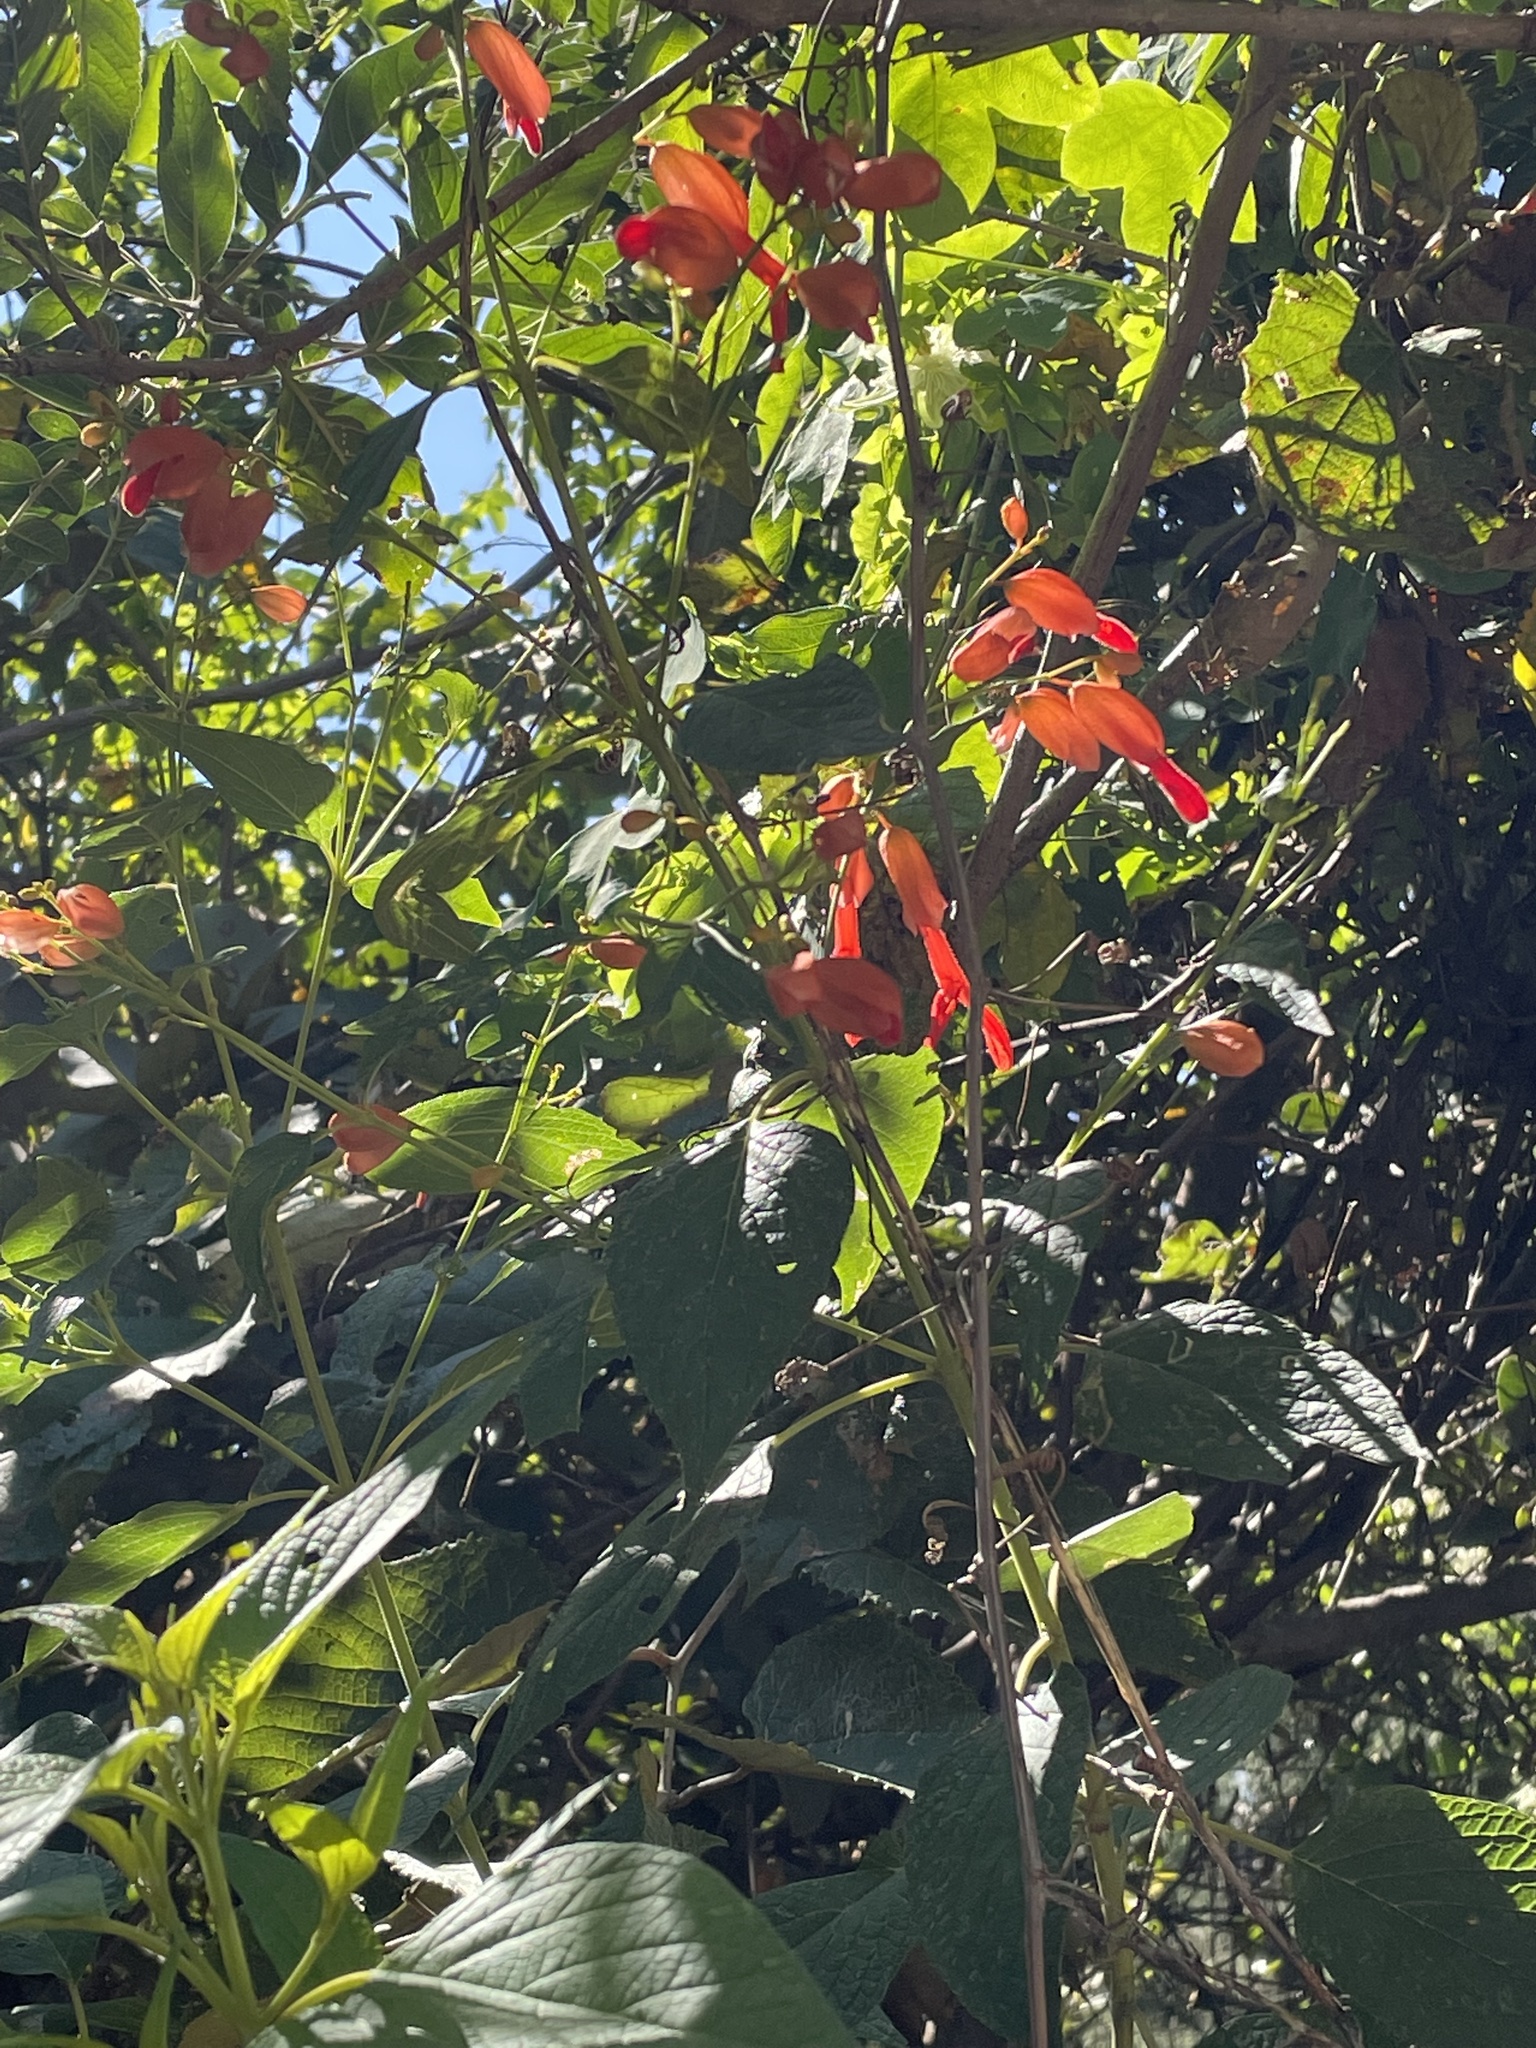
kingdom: Plantae
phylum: Tracheophyta
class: Magnoliopsida
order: Lamiales
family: Lamiaceae
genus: Salvia
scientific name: Salvia sessei
